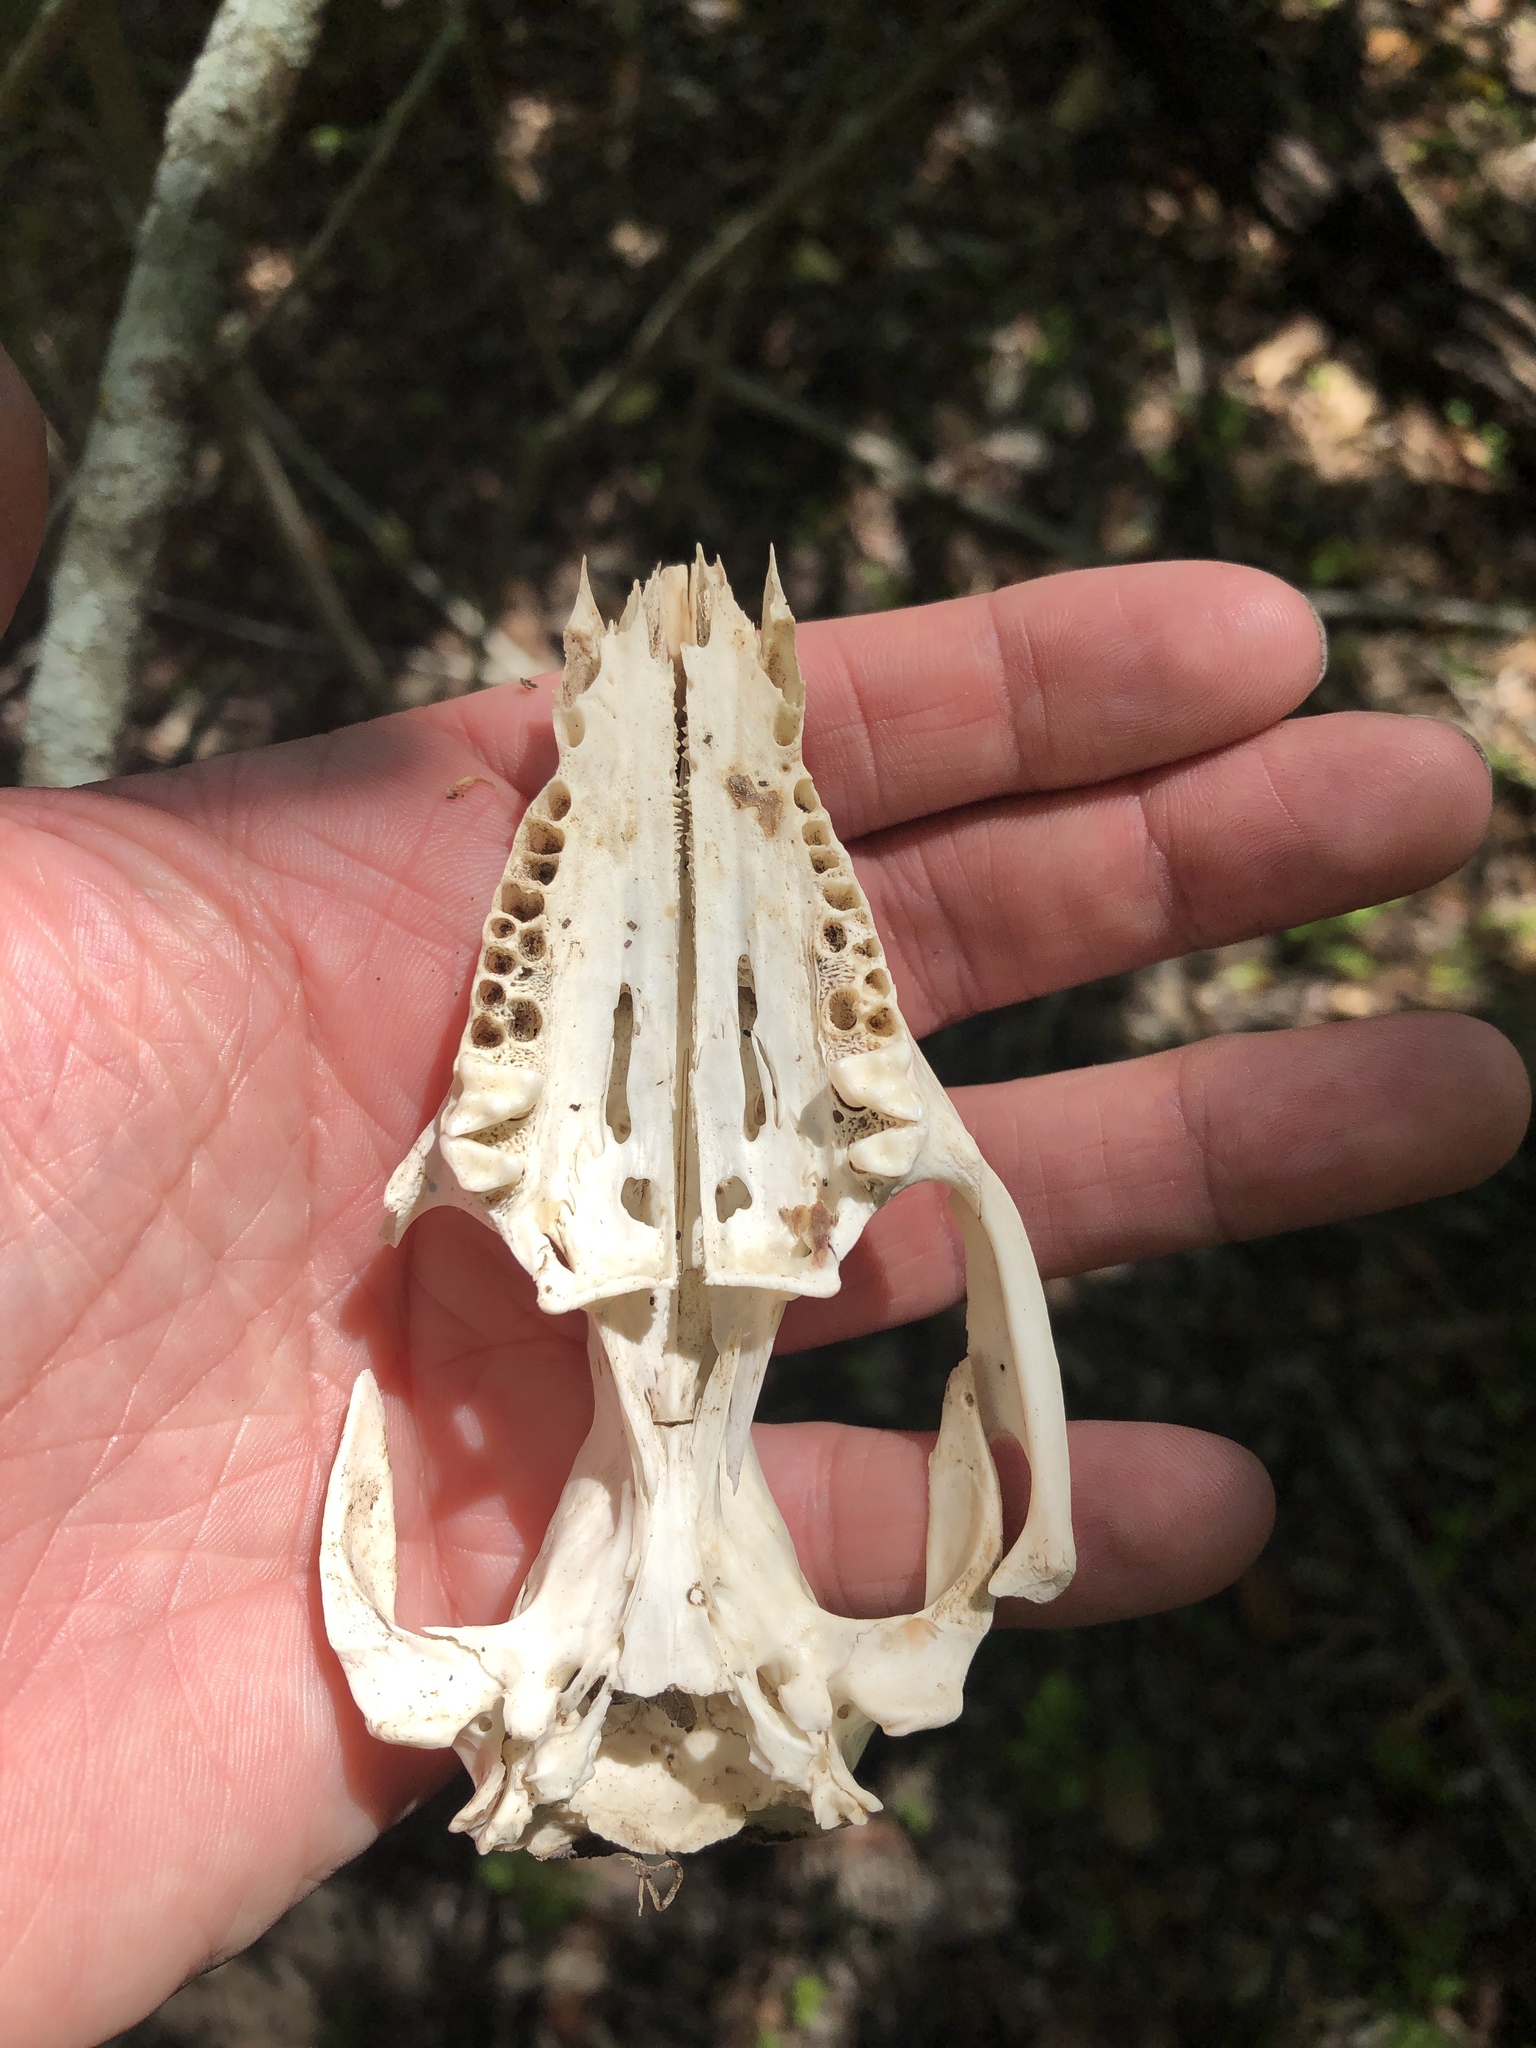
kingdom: Animalia
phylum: Chordata
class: Mammalia
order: Didelphimorphia
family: Didelphidae
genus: Didelphis
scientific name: Didelphis virginiana
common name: Virginia opossum
